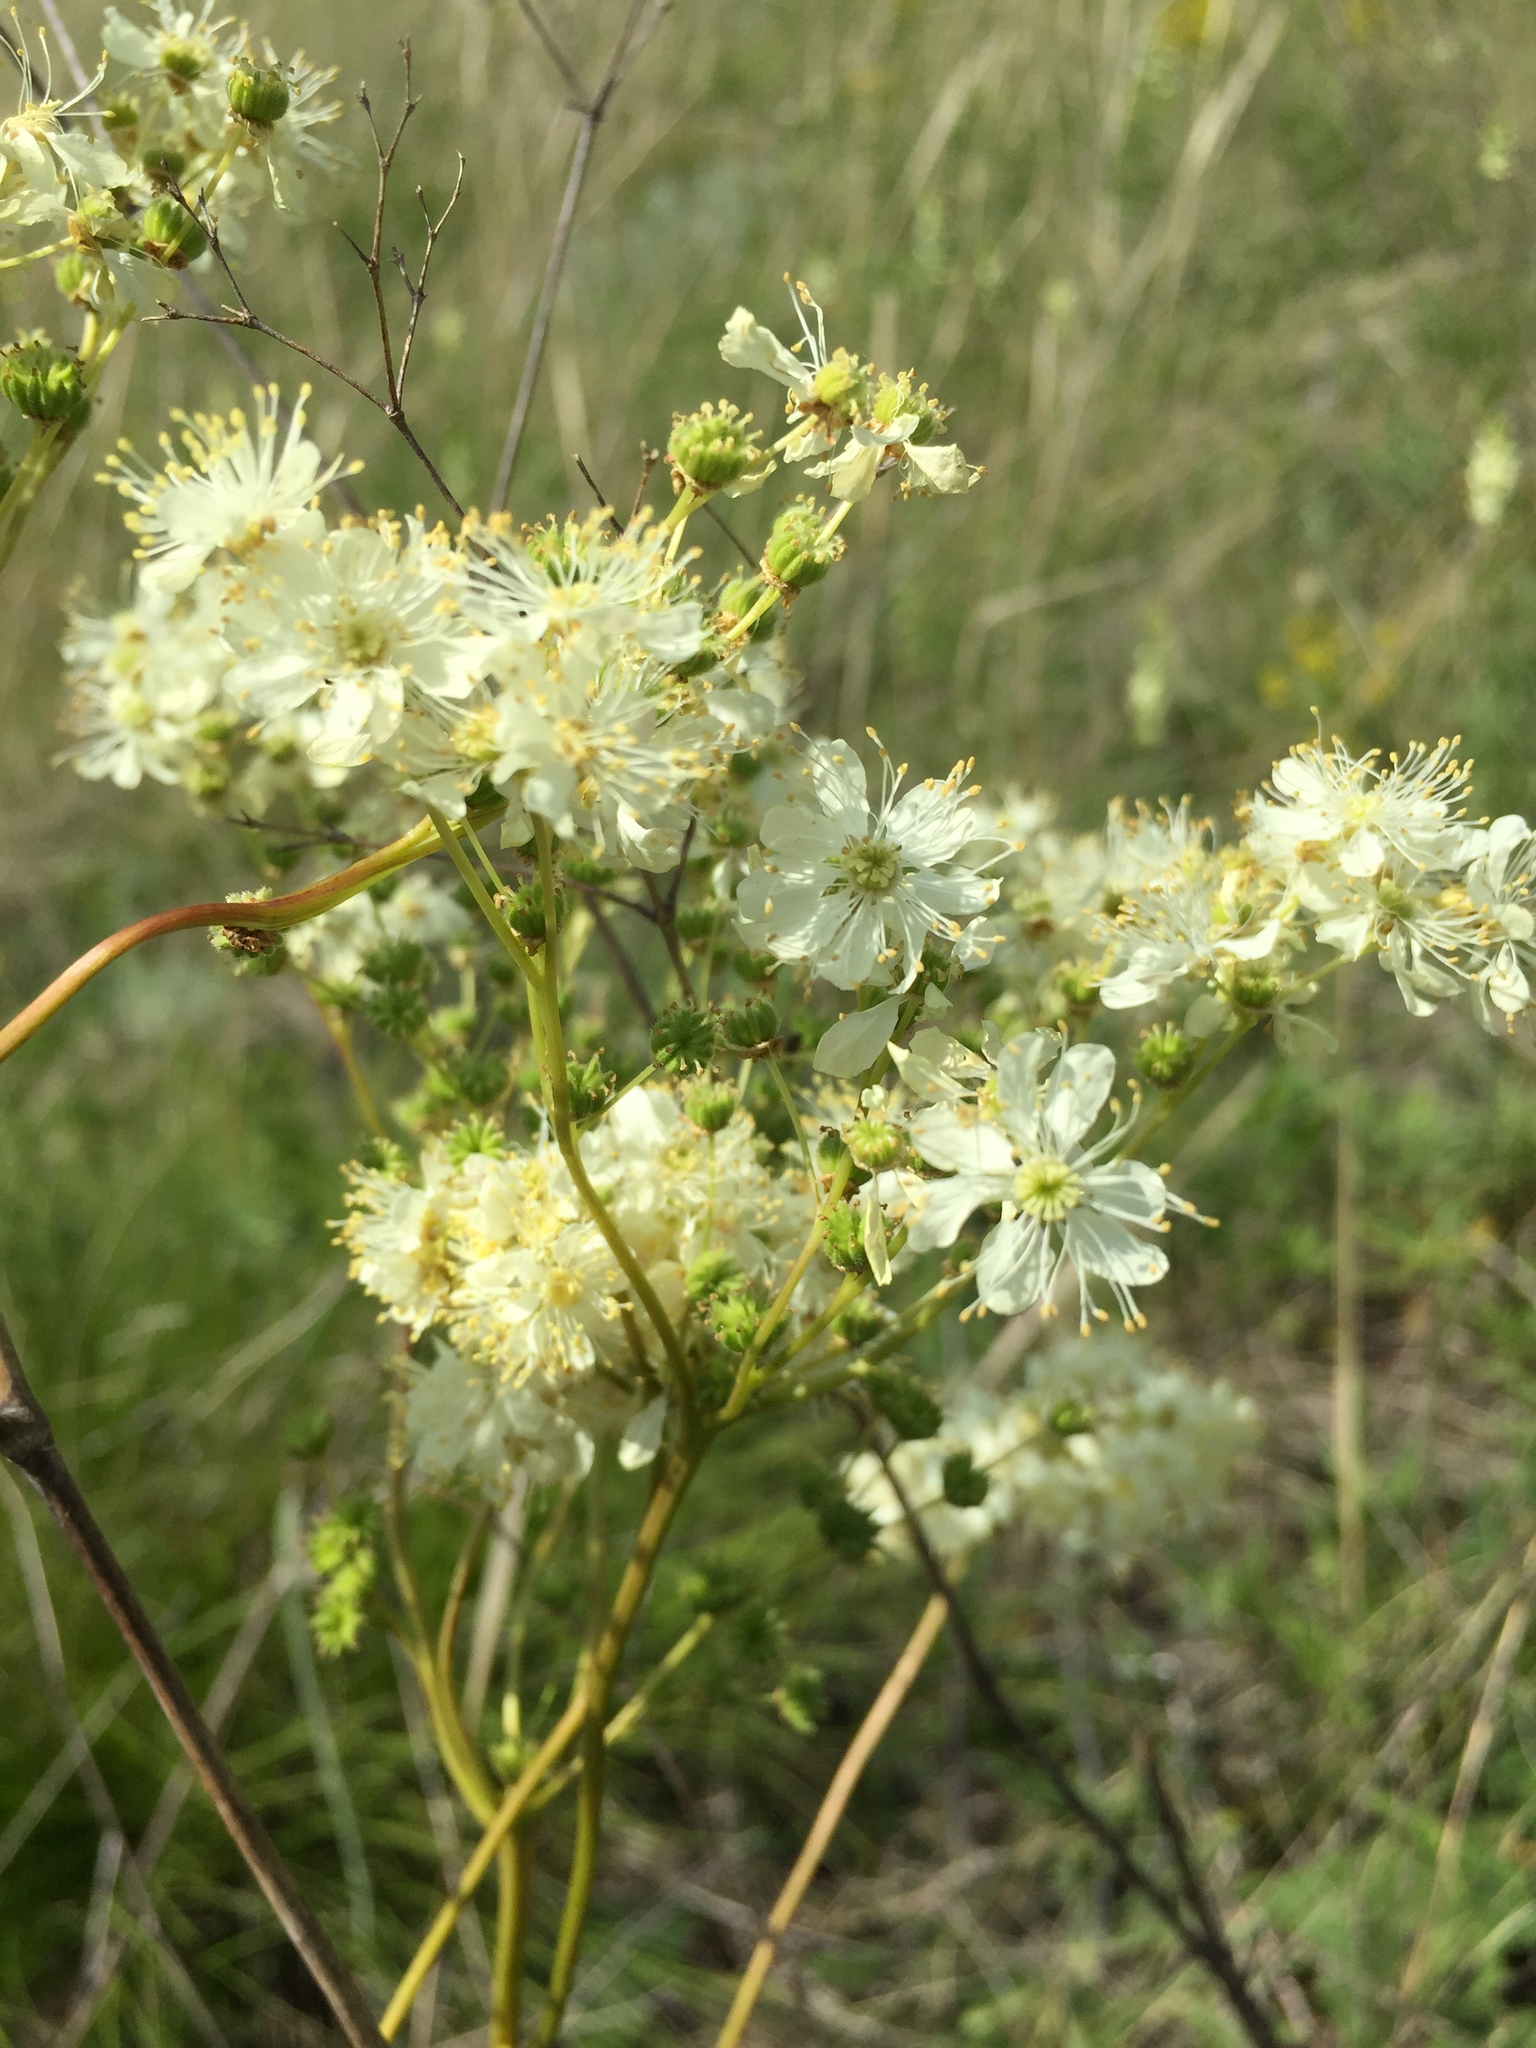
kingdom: Plantae
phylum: Tracheophyta
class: Magnoliopsida
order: Rosales
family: Rosaceae
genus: Filipendula
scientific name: Filipendula vulgaris
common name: Dropwort
